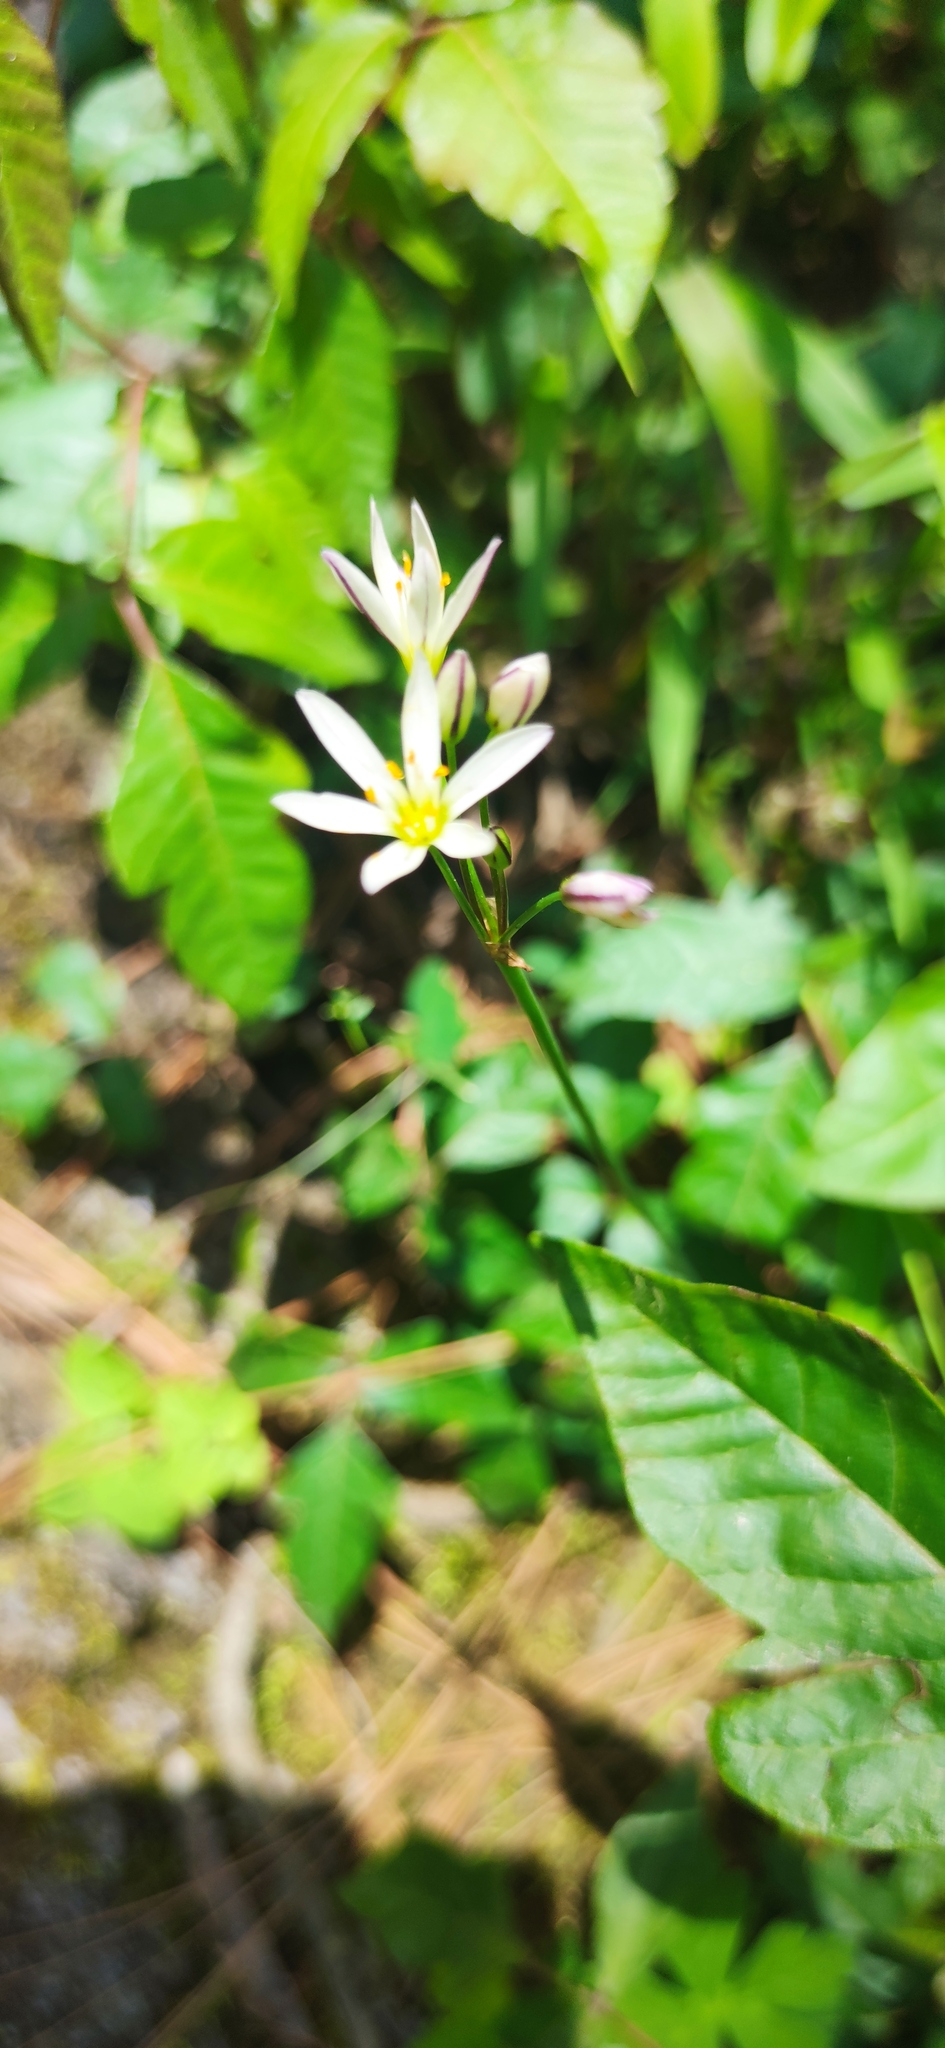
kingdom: Plantae
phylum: Tracheophyta
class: Liliopsida
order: Asparagales
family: Amaryllidaceae
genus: Nothoscordum
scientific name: Nothoscordum bivalve
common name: Crow-poison
